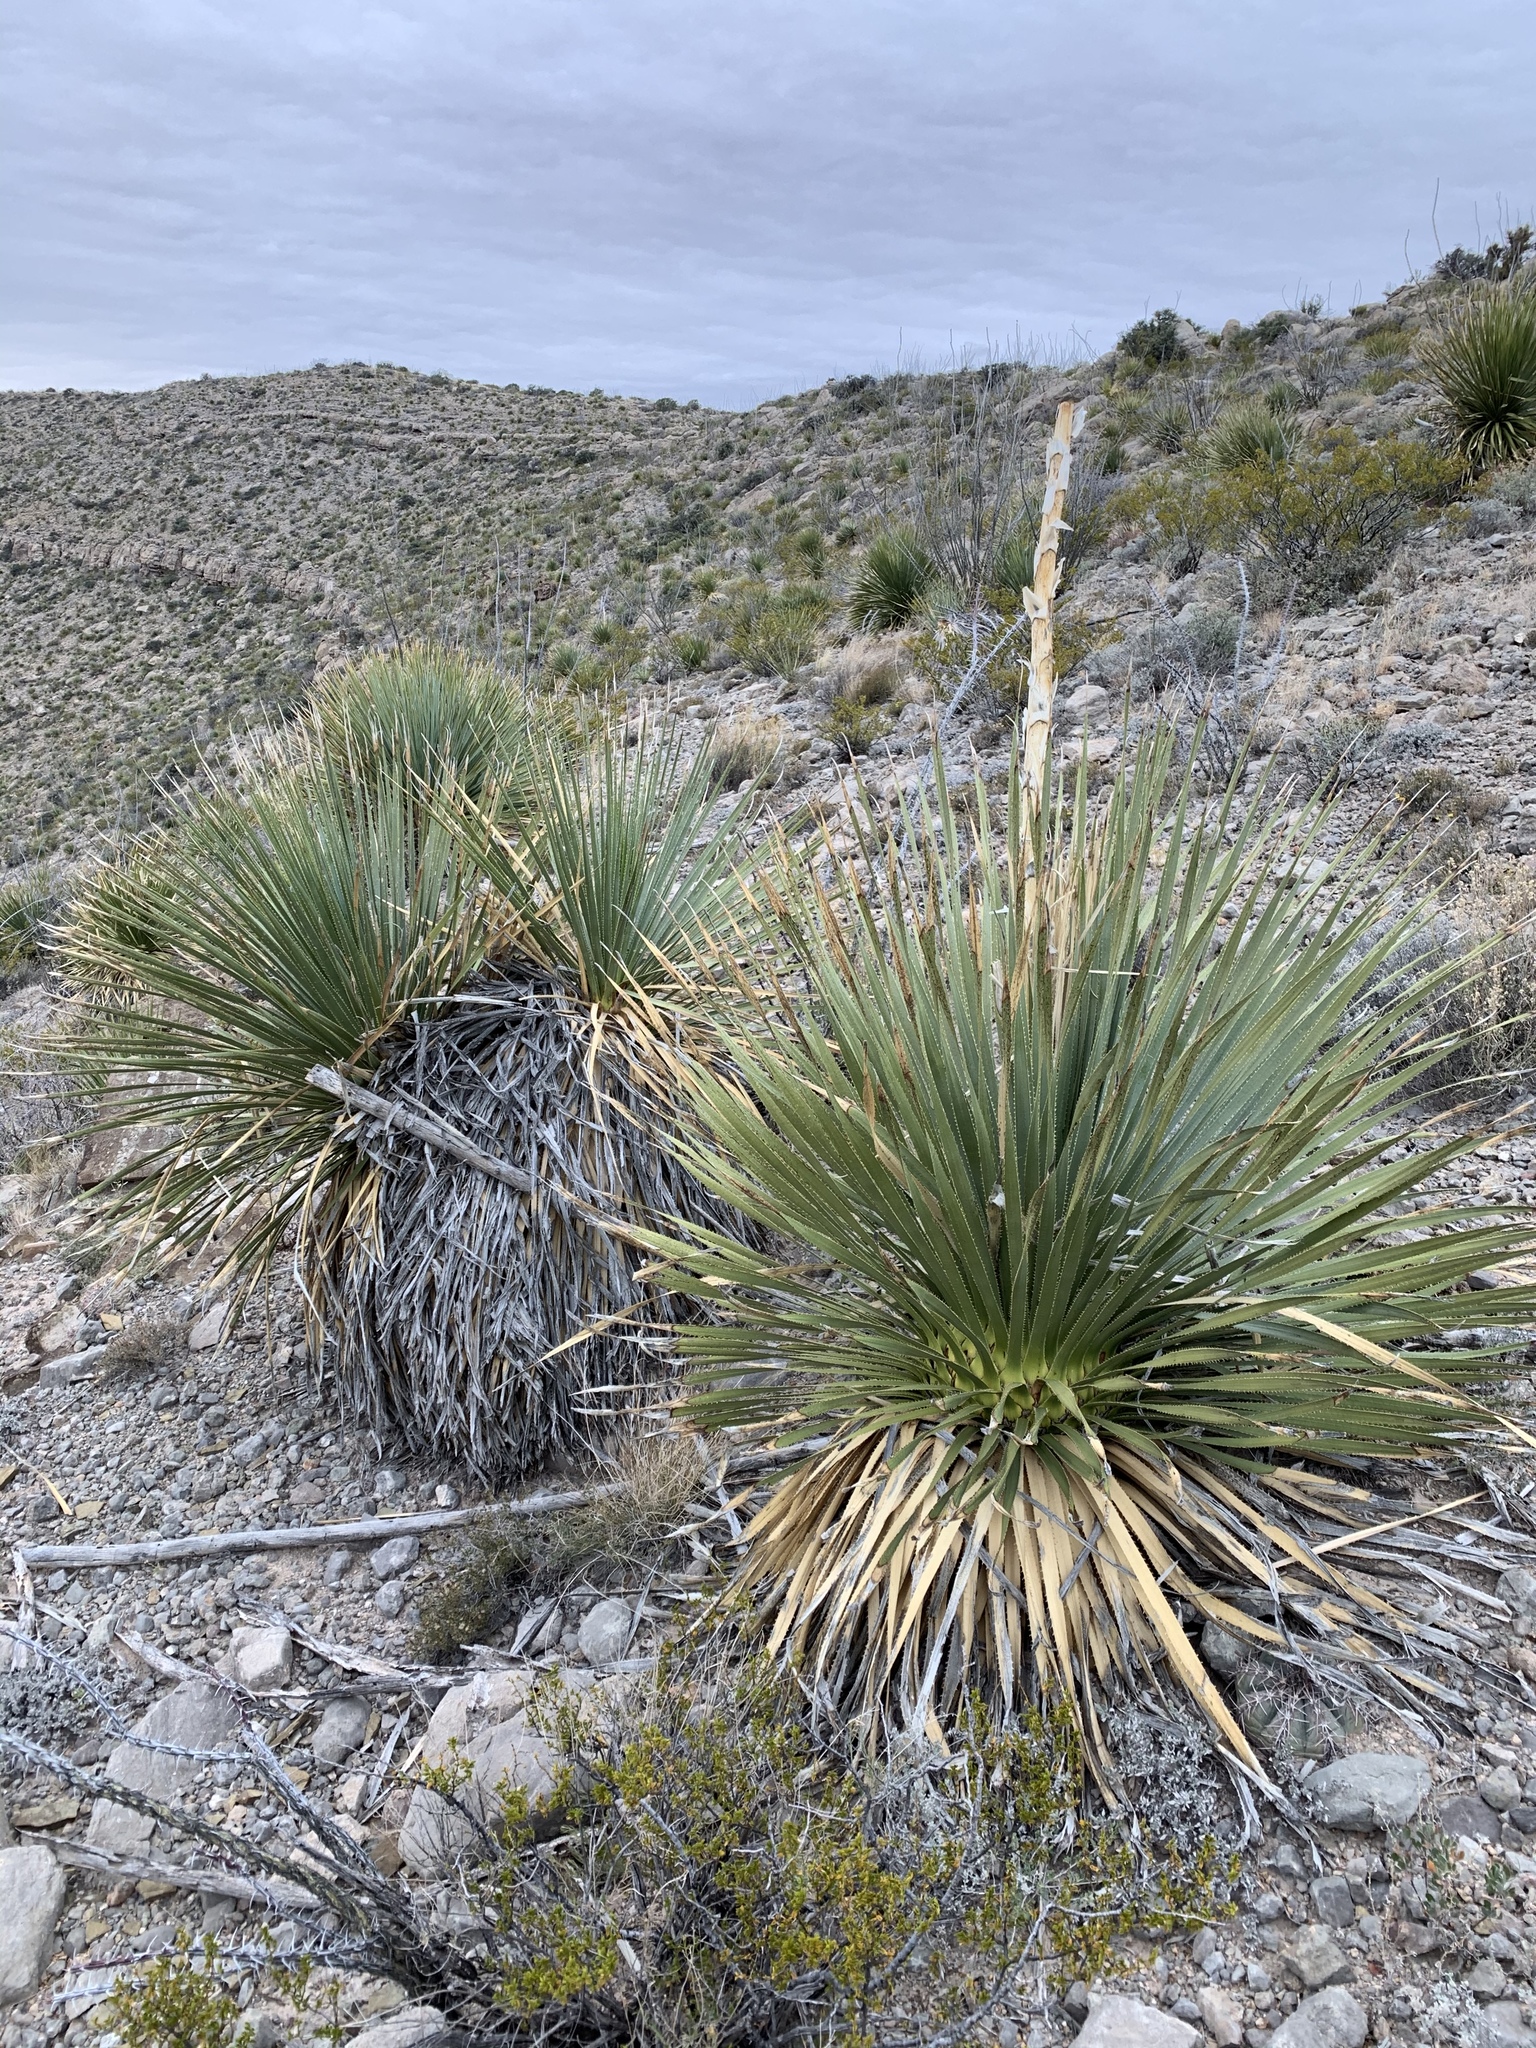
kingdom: Plantae
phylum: Tracheophyta
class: Liliopsida
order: Asparagales
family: Asparagaceae
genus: Dasylirion
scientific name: Dasylirion wheeleri
